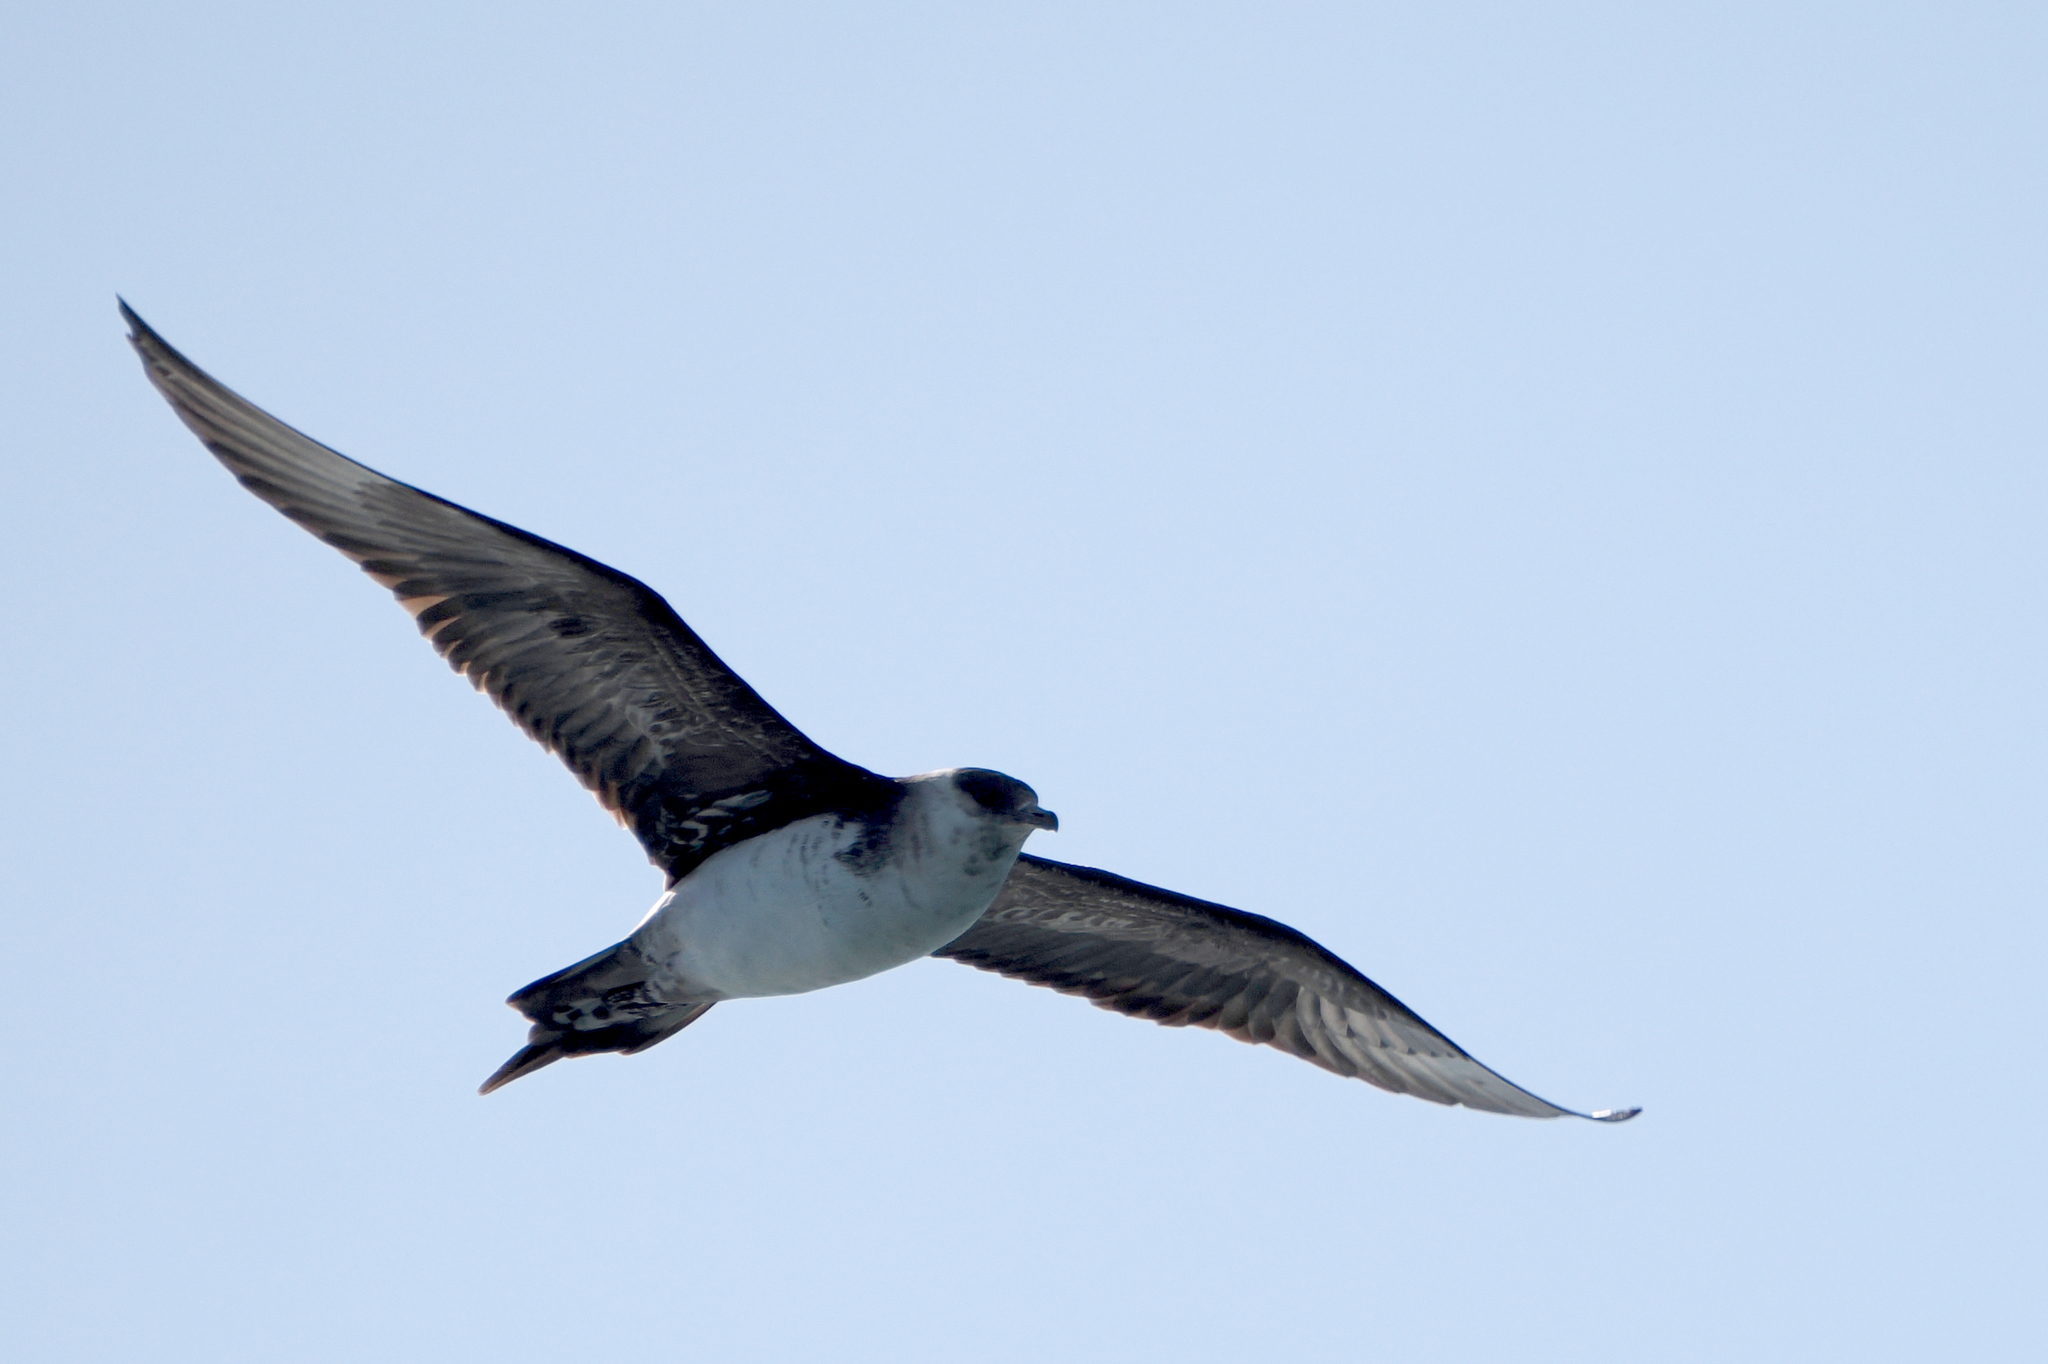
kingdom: Animalia
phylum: Chordata
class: Aves
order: Charadriiformes
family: Stercorariidae
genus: Stercorarius
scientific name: Stercorarius parasiticus
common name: Parasitic jaeger
